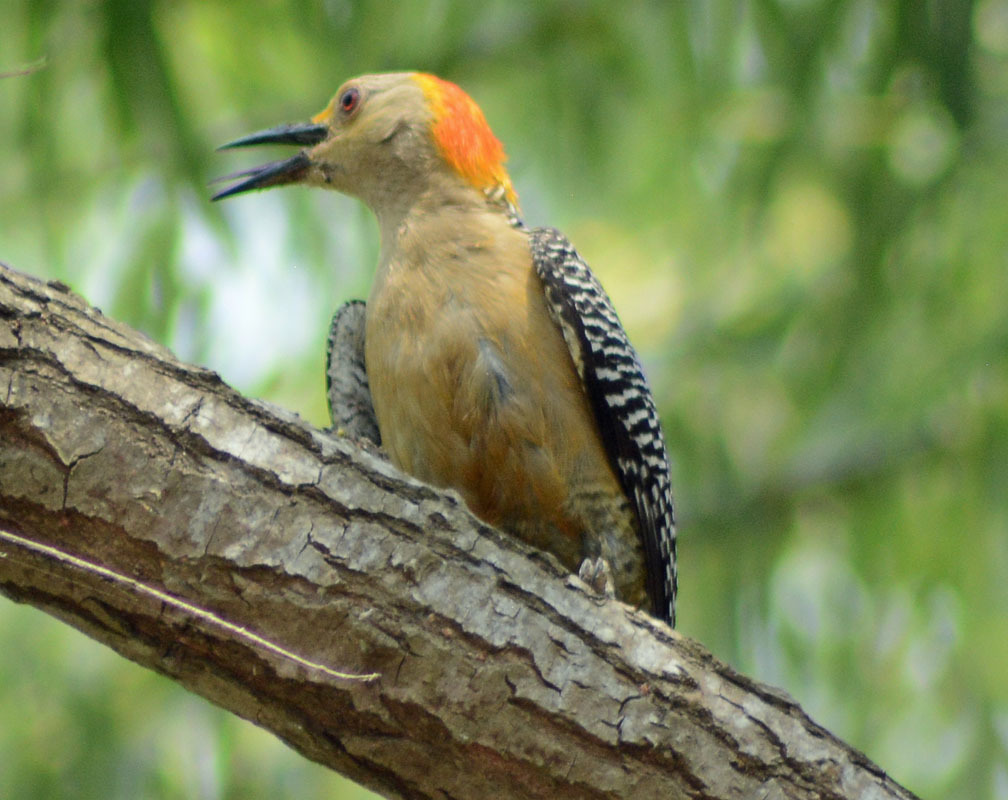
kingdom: Animalia
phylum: Chordata
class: Aves
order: Piciformes
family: Picidae
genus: Melanerpes
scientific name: Melanerpes aurifrons
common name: Golden-fronted woodpecker
